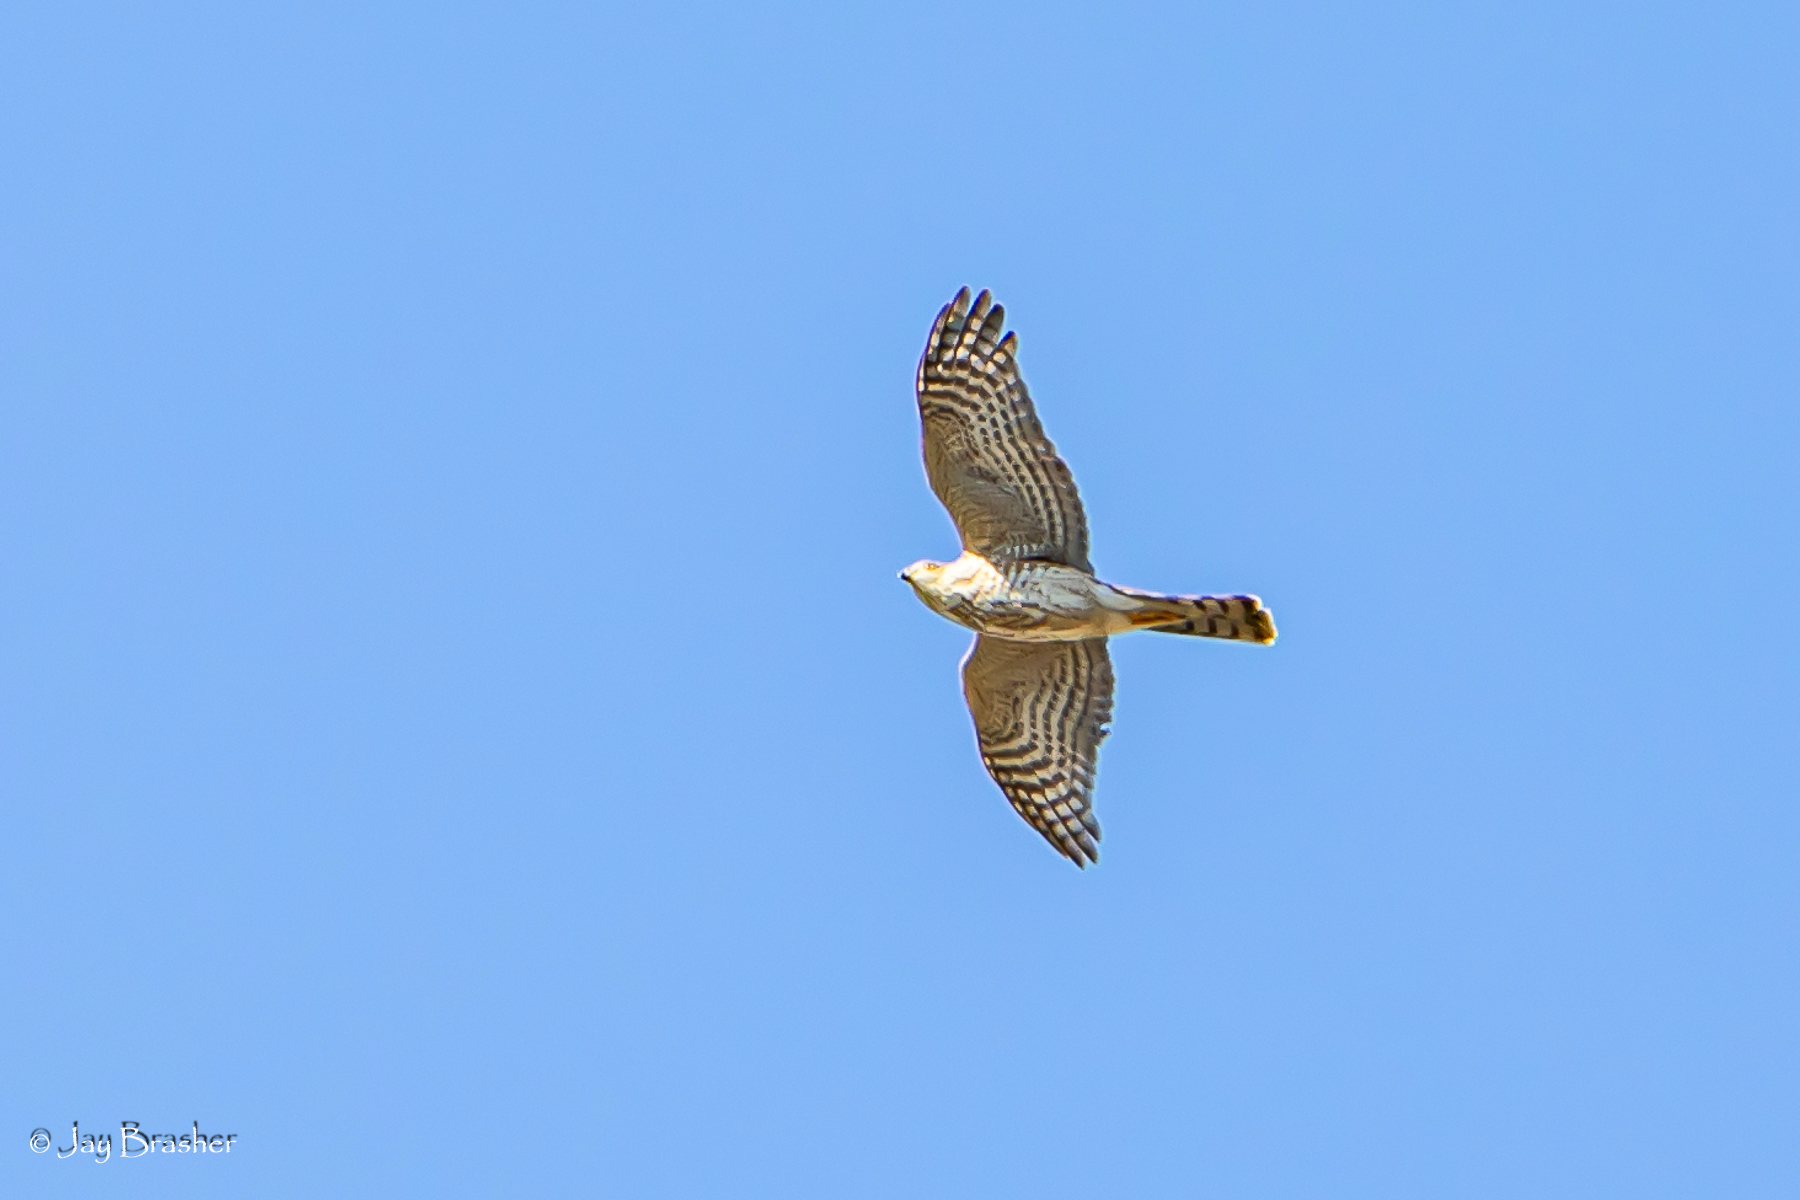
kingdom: Animalia
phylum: Chordata
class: Aves
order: Accipitriformes
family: Accipitridae
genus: Accipiter
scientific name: Accipiter striatus
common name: Sharp-shinned hawk
